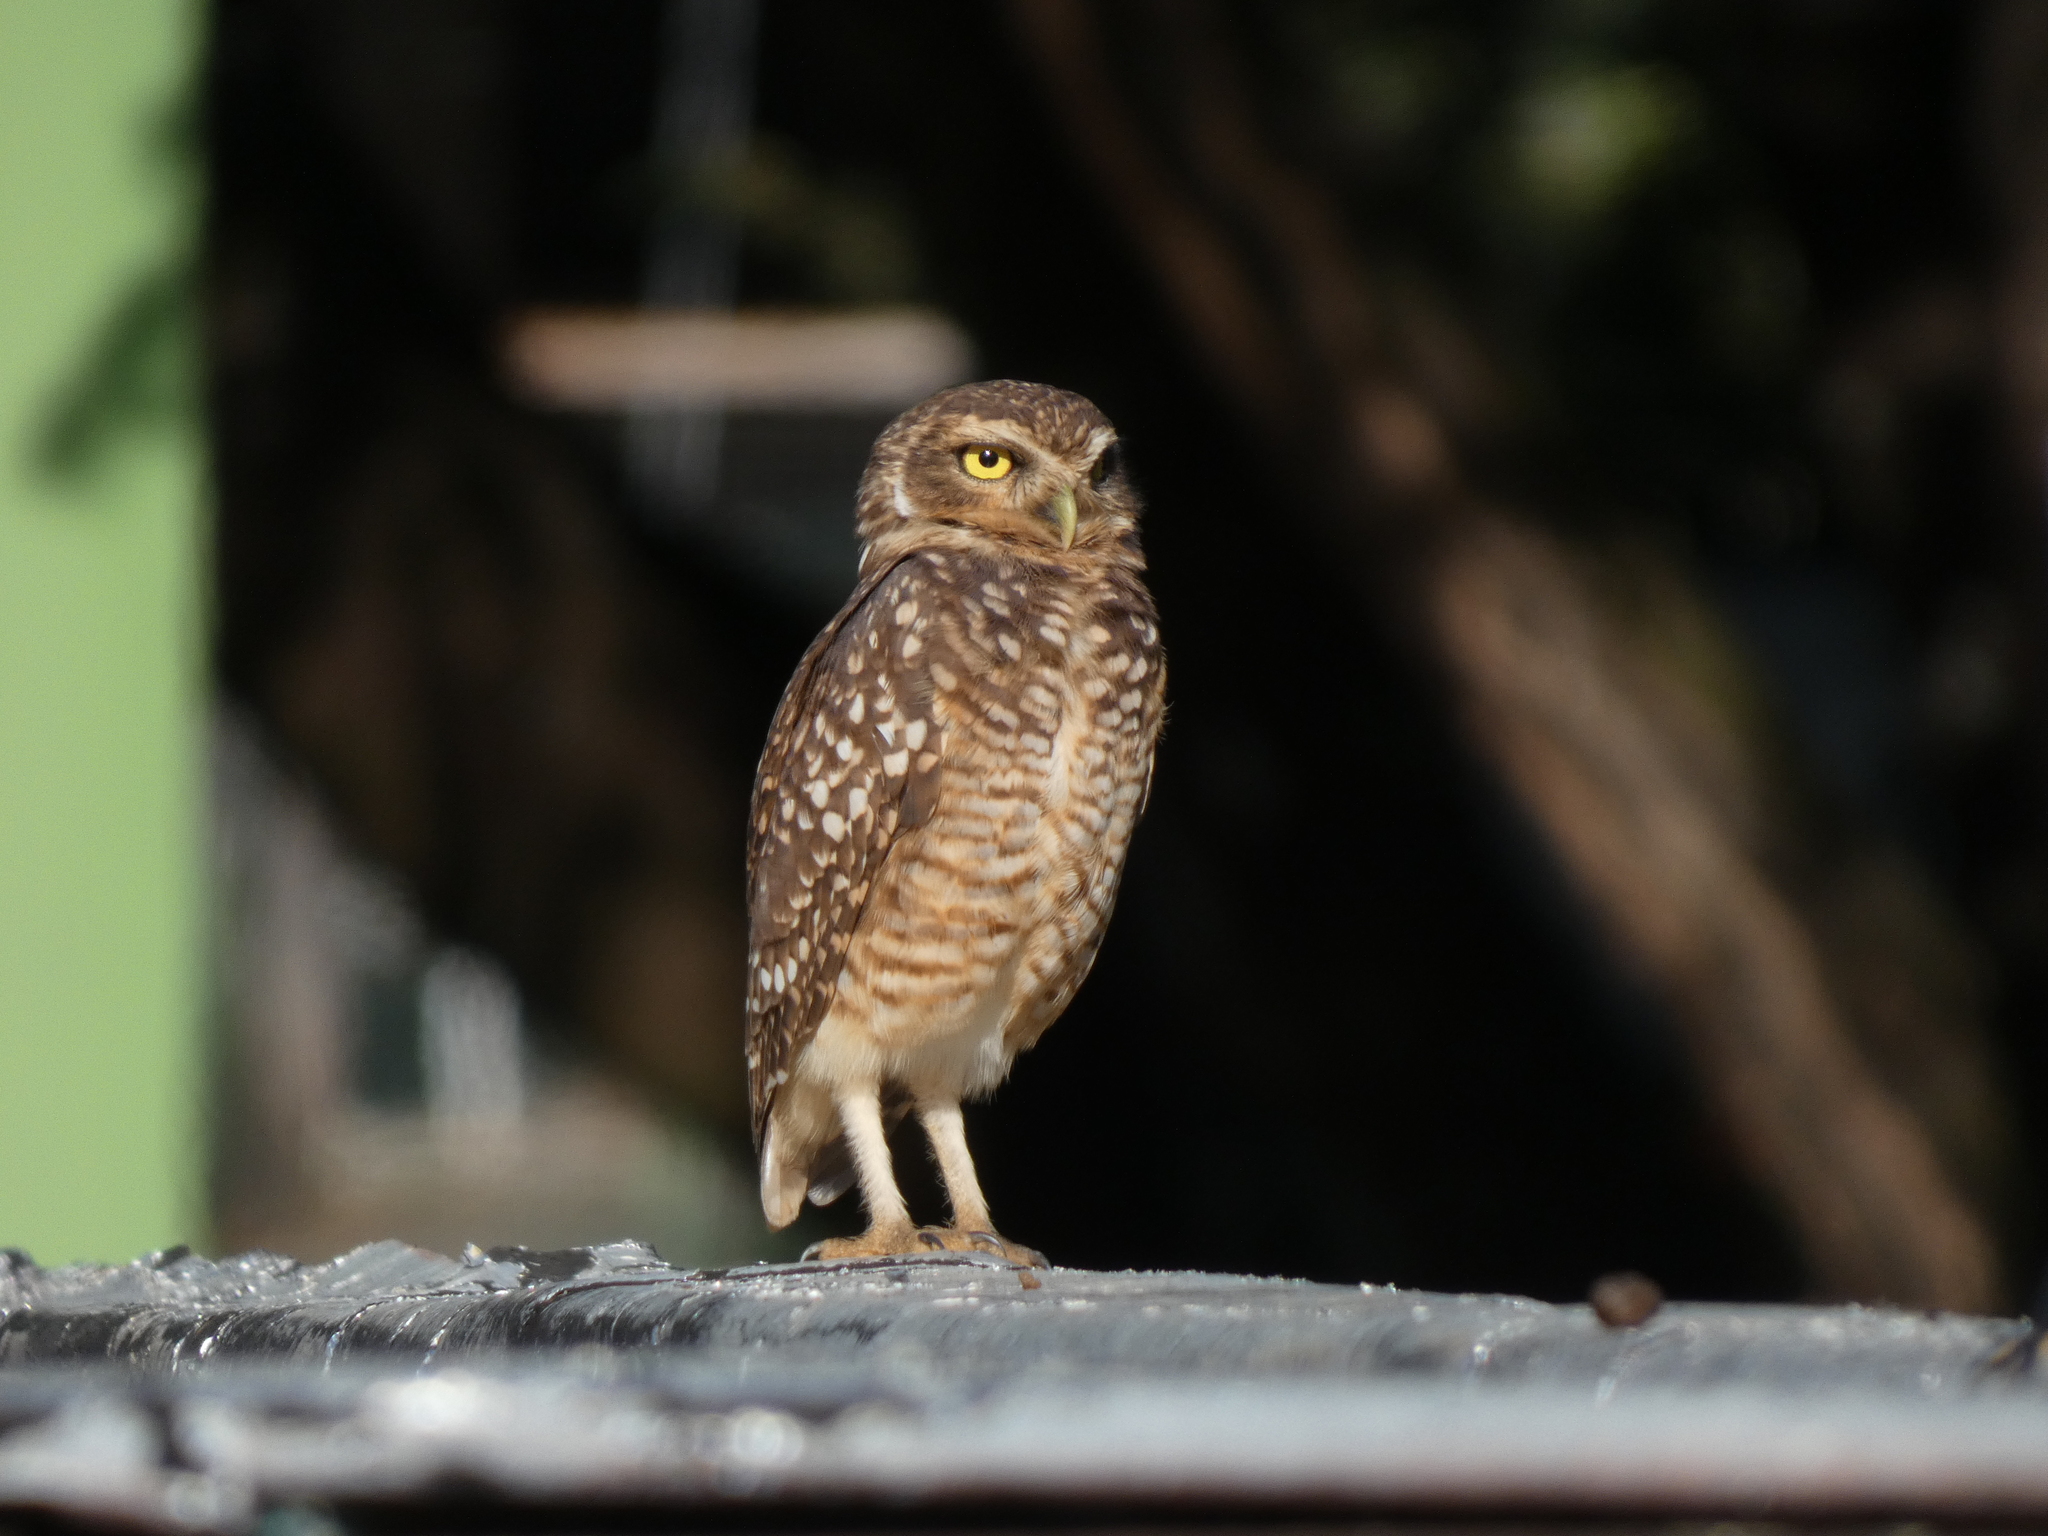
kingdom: Animalia
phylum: Chordata
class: Aves
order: Strigiformes
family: Strigidae
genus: Athene
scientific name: Athene cunicularia
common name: Burrowing owl
